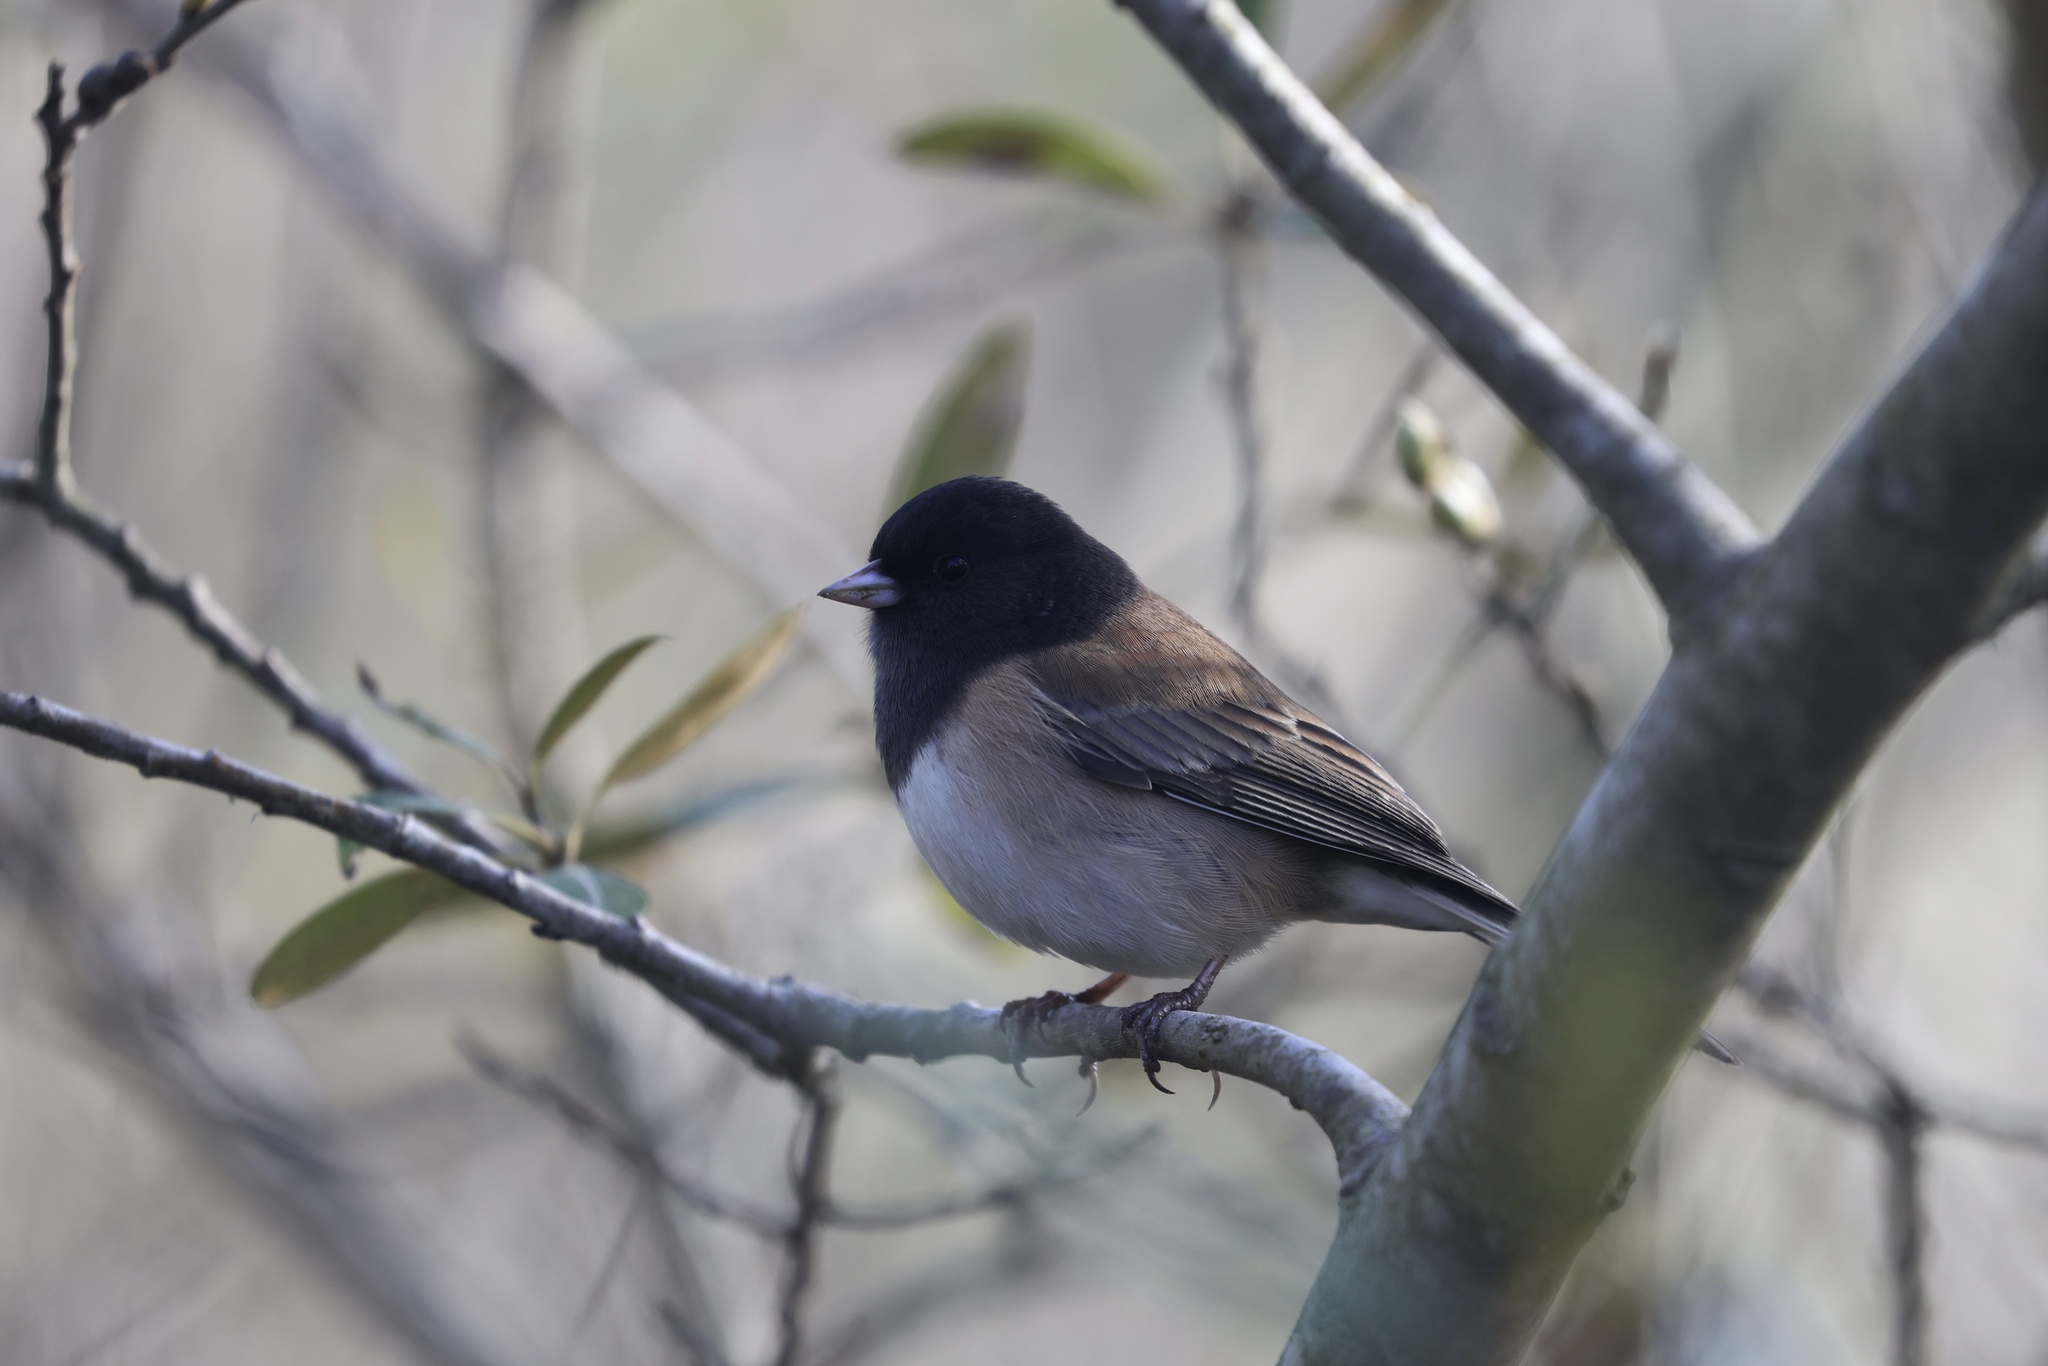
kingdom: Animalia
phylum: Chordata
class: Aves
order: Passeriformes
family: Passerellidae
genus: Junco
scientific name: Junco hyemalis
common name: Dark-eyed junco
